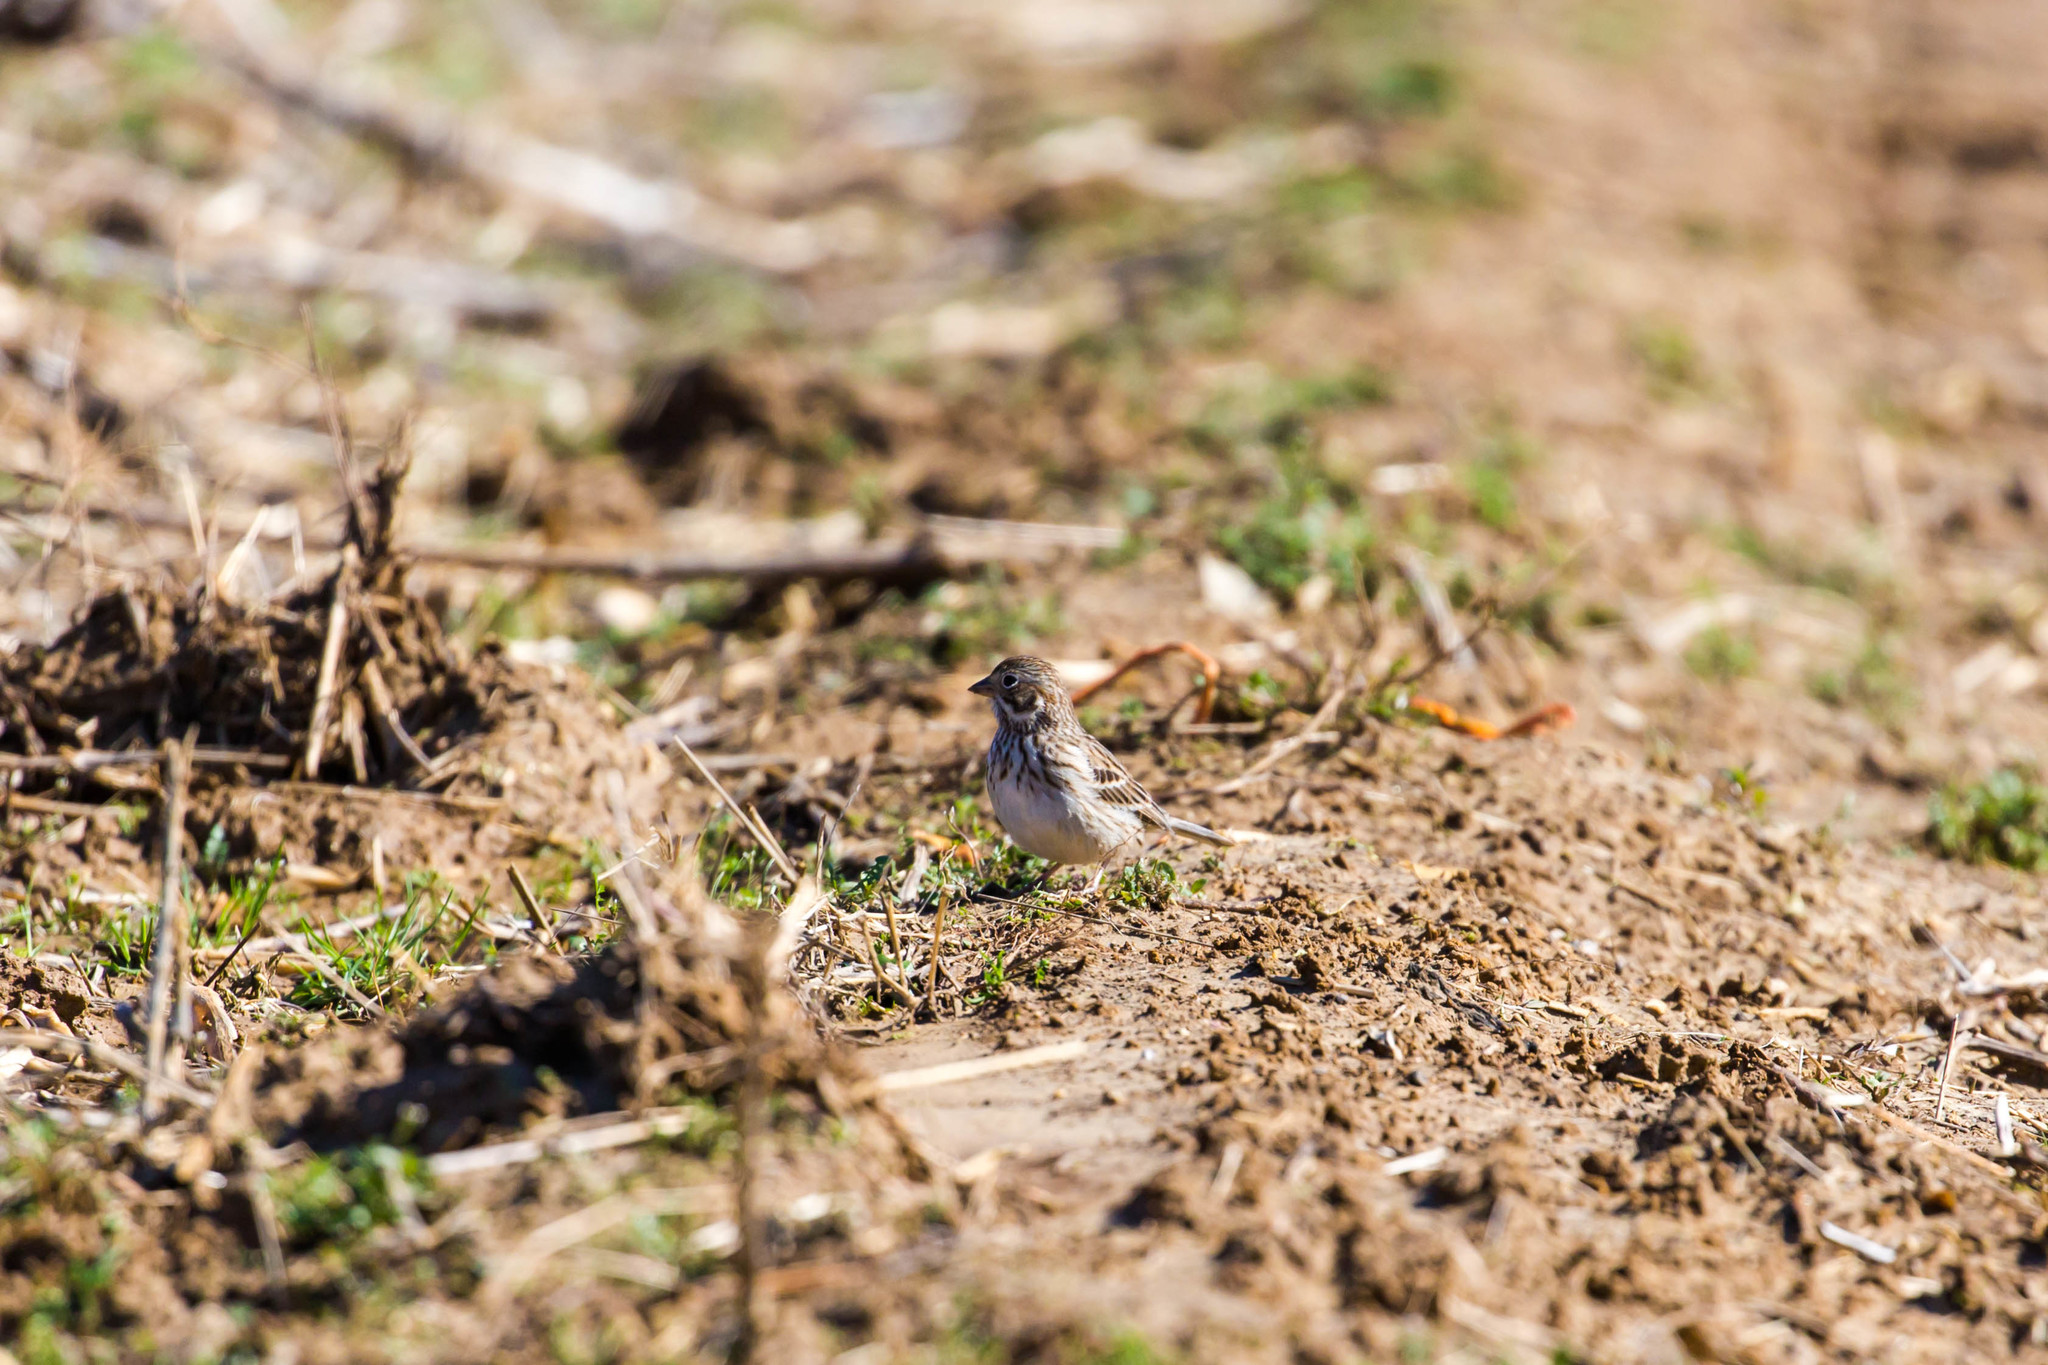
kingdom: Animalia
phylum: Chordata
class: Aves
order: Passeriformes
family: Passerellidae
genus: Pooecetes
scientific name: Pooecetes gramineus
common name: Vesper sparrow
